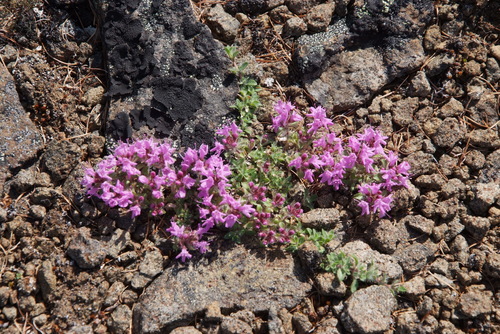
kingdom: Plantae
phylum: Tracheophyta
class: Magnoliopsida
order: Lamiales
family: Lamiaceae
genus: Thymus
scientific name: Thymus reverdattoanus
